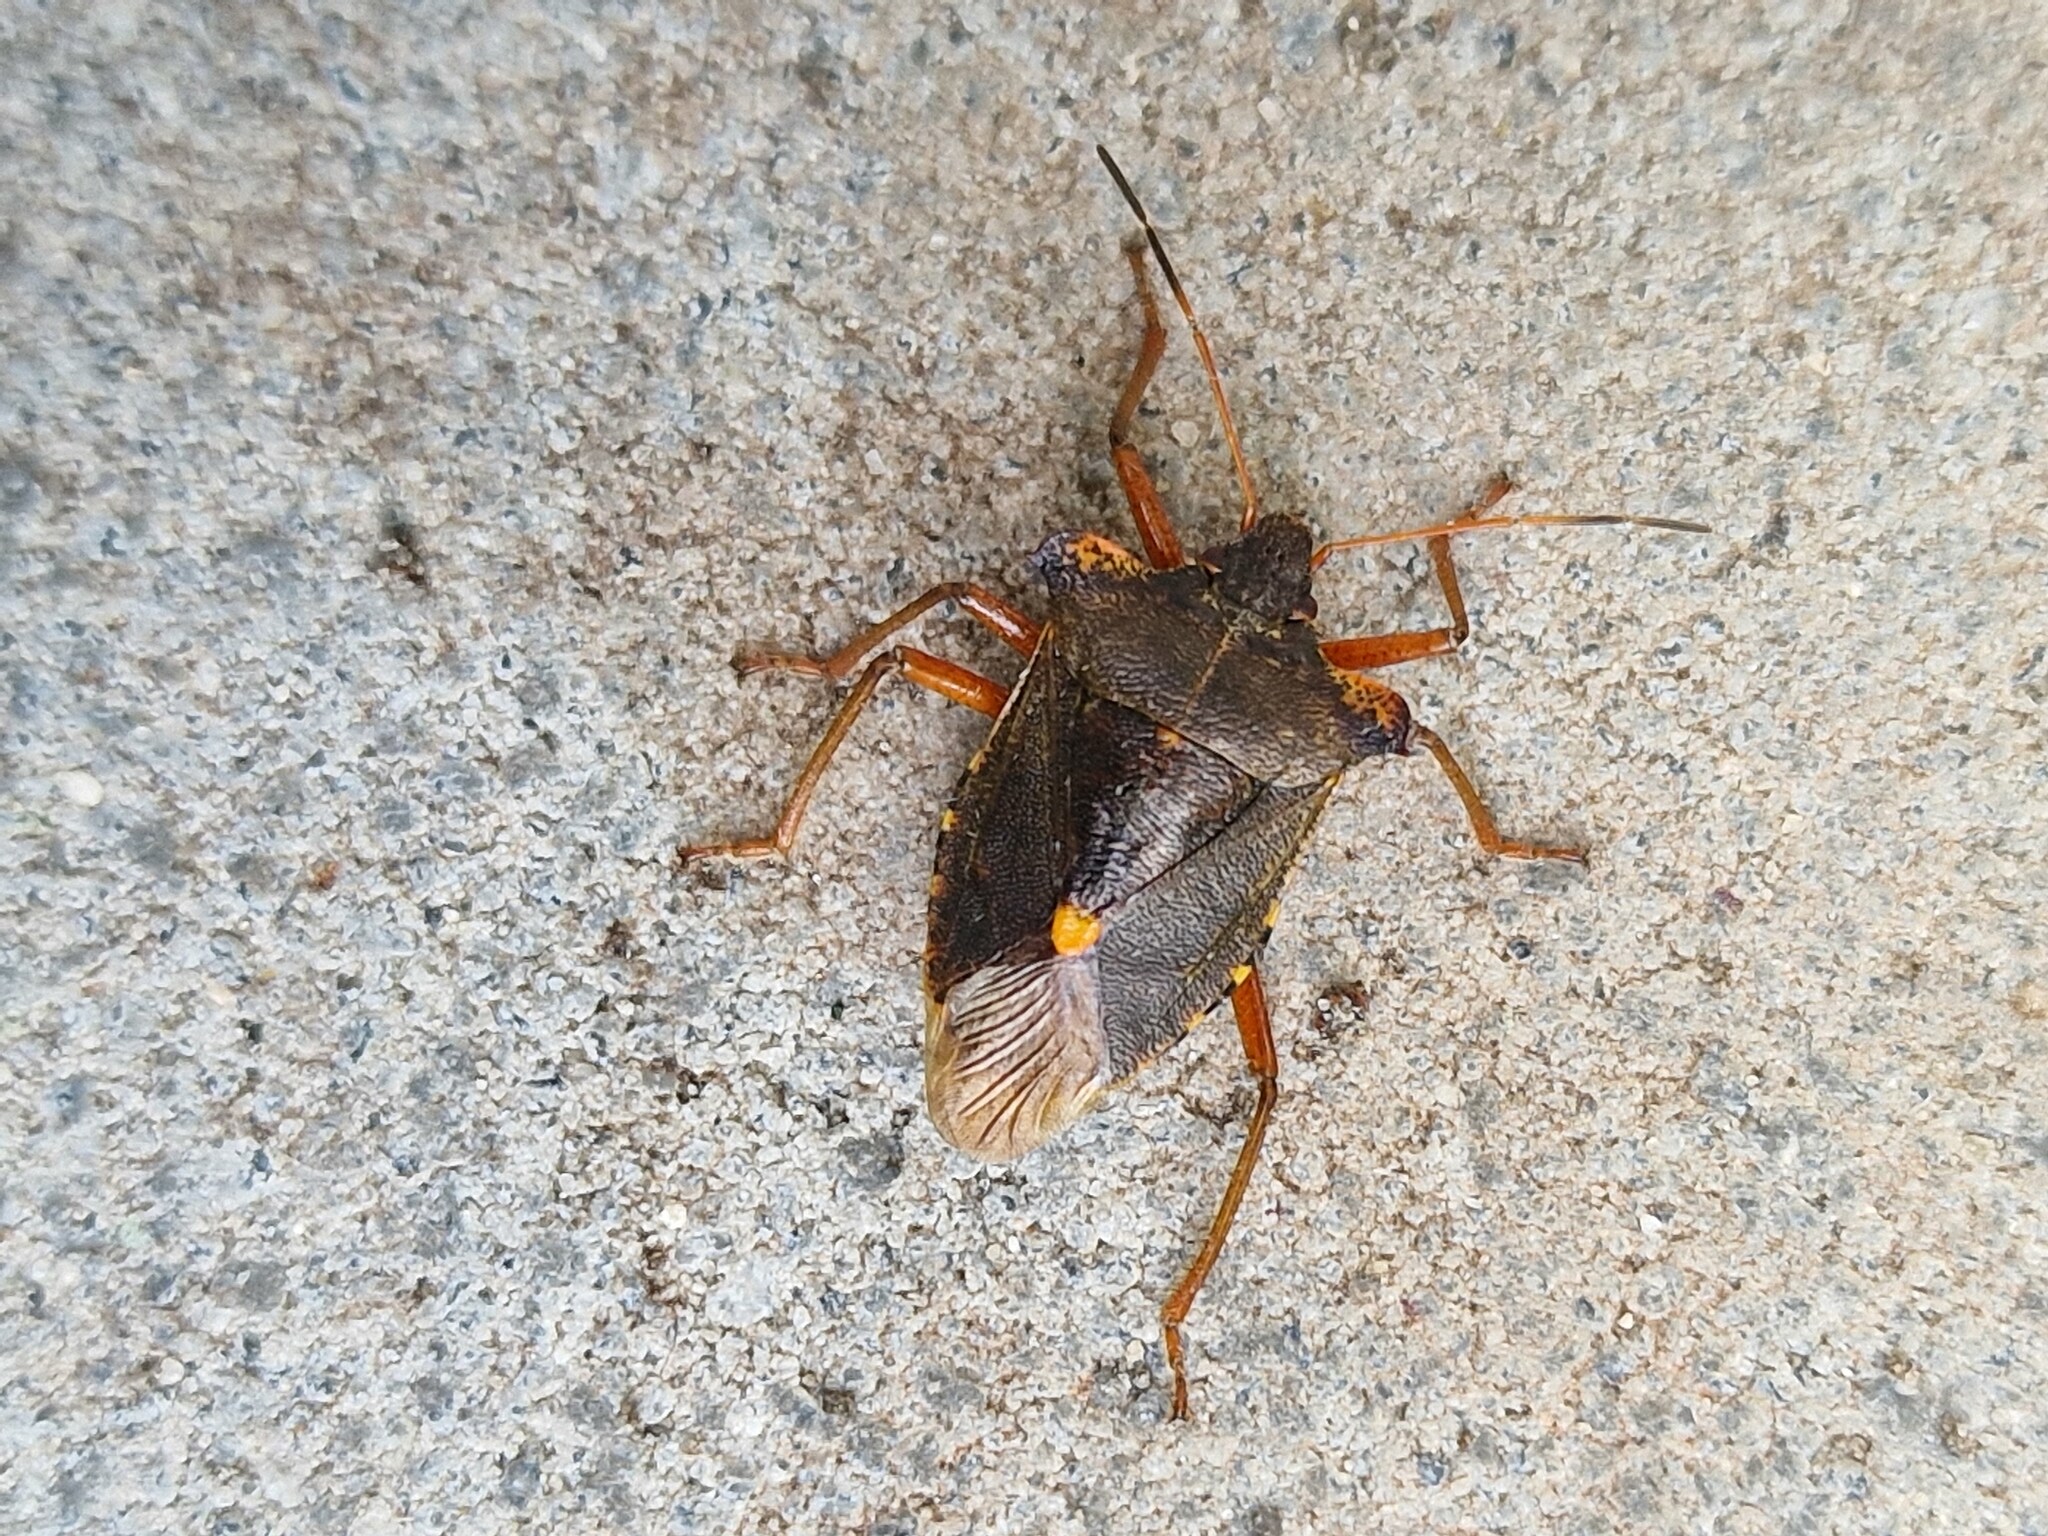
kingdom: Animalia
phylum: Arthropoda
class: Insecta
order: Hemiptera
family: Pentatomidae
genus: Pentatoma
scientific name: Pentatoma rufipes
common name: Forest bug
